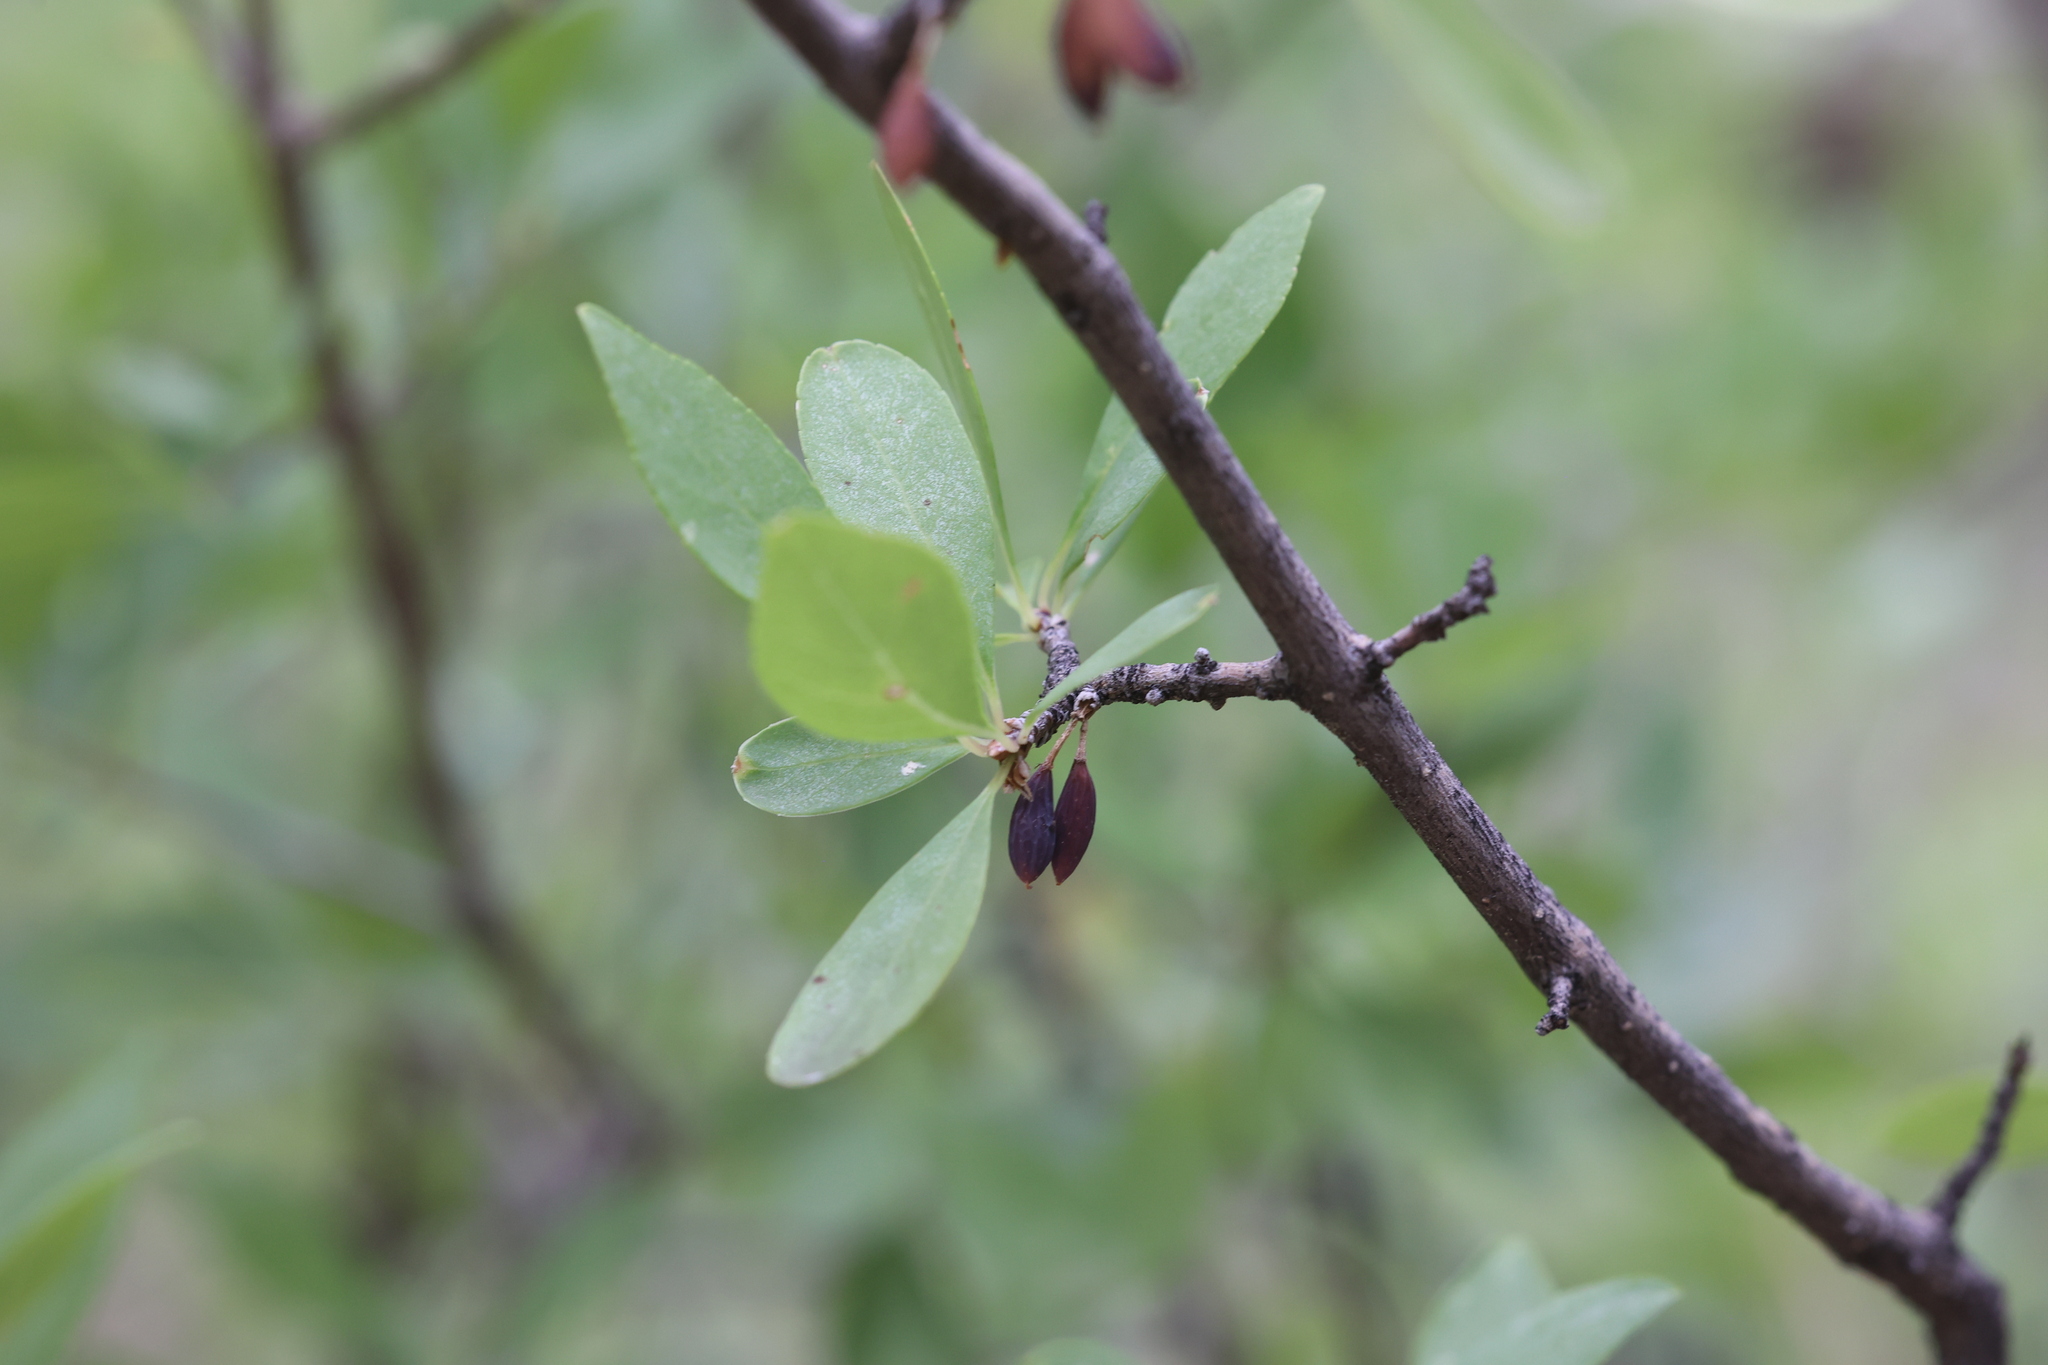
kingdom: Plantae
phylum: Tracheophyta
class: Magnoliopsida
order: Lamiales
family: Oleaceae
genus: Forestiera
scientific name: Forestiera pubescens
